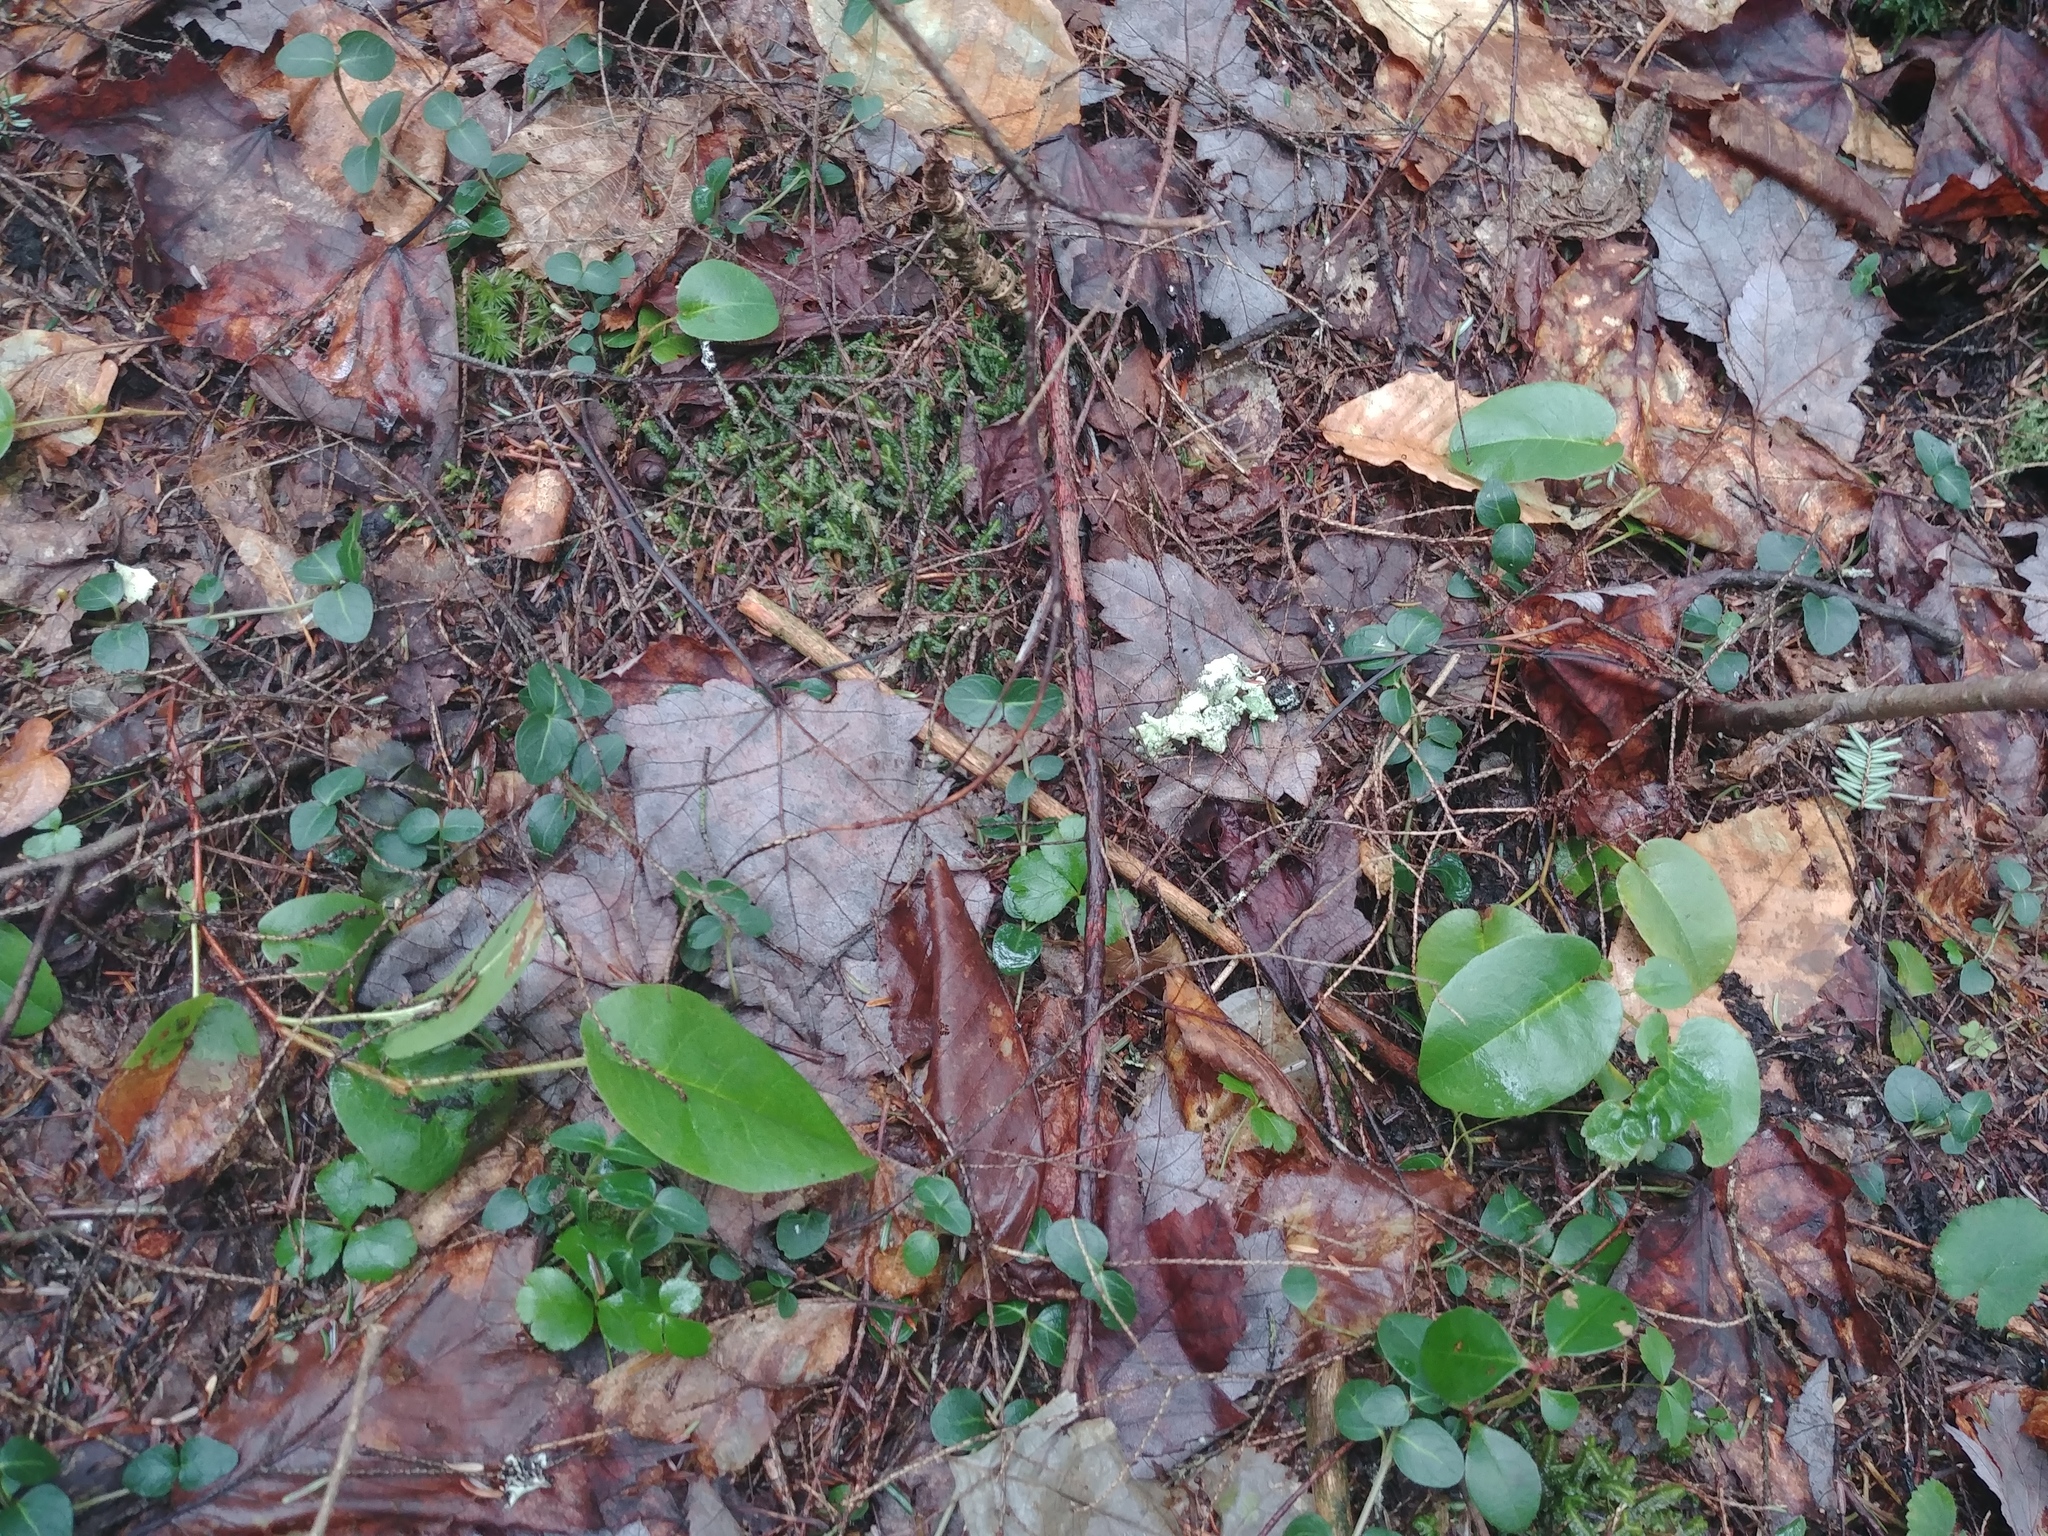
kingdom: Plantae
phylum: Tracheophyta
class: Magnoliopsida
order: Ericales
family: Ericaceae
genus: Epigaea
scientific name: Epigaea repens
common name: Gravelroot
